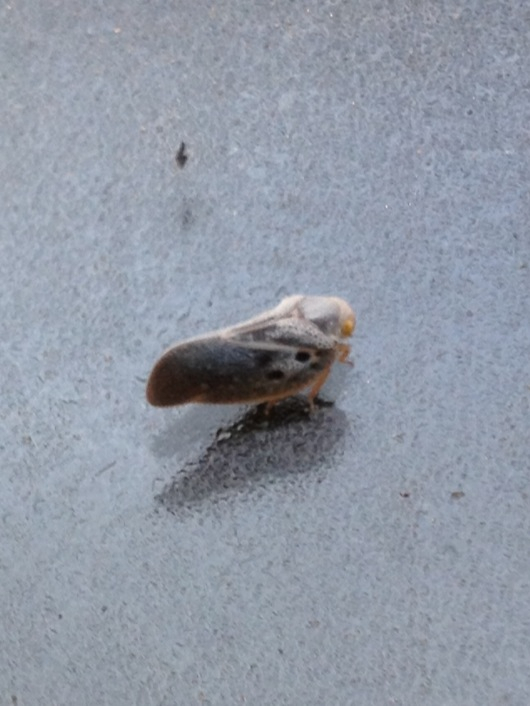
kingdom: Animalia
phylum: Arthropoda
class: Insecta
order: Hemiptera
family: Flatidae
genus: Metcalfa
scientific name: Metcalfa pruinosa
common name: Citrus flatid planthopper
